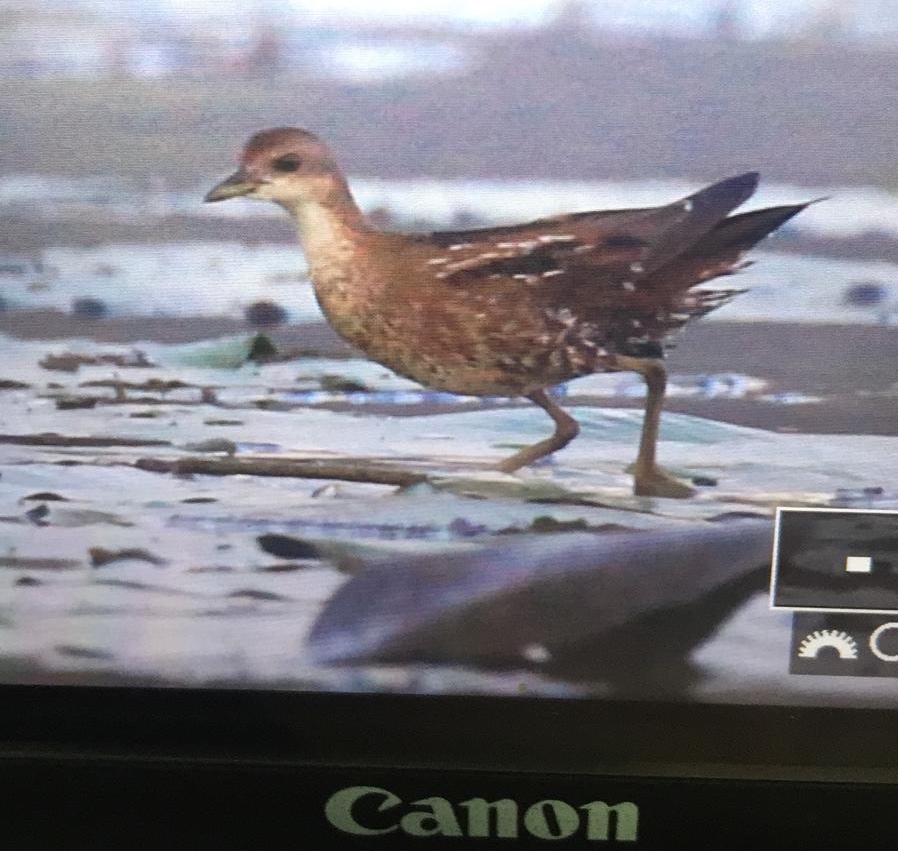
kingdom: Animalia
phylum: Chordata
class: Aves
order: Gruiformes
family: Rallidae
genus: Porzana
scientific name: Porzana parva
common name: Little crake
